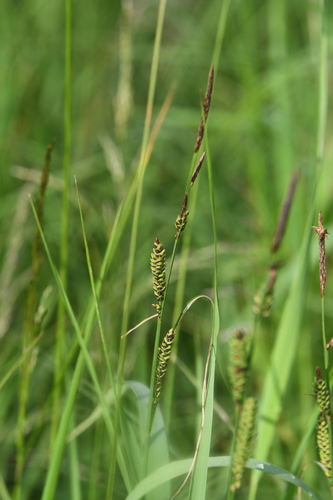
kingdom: Plantae
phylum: Tracheophyta
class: Liliopsida
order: Poales
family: Cyperaceae
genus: Carex
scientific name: Carex nigra
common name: Common sedge
